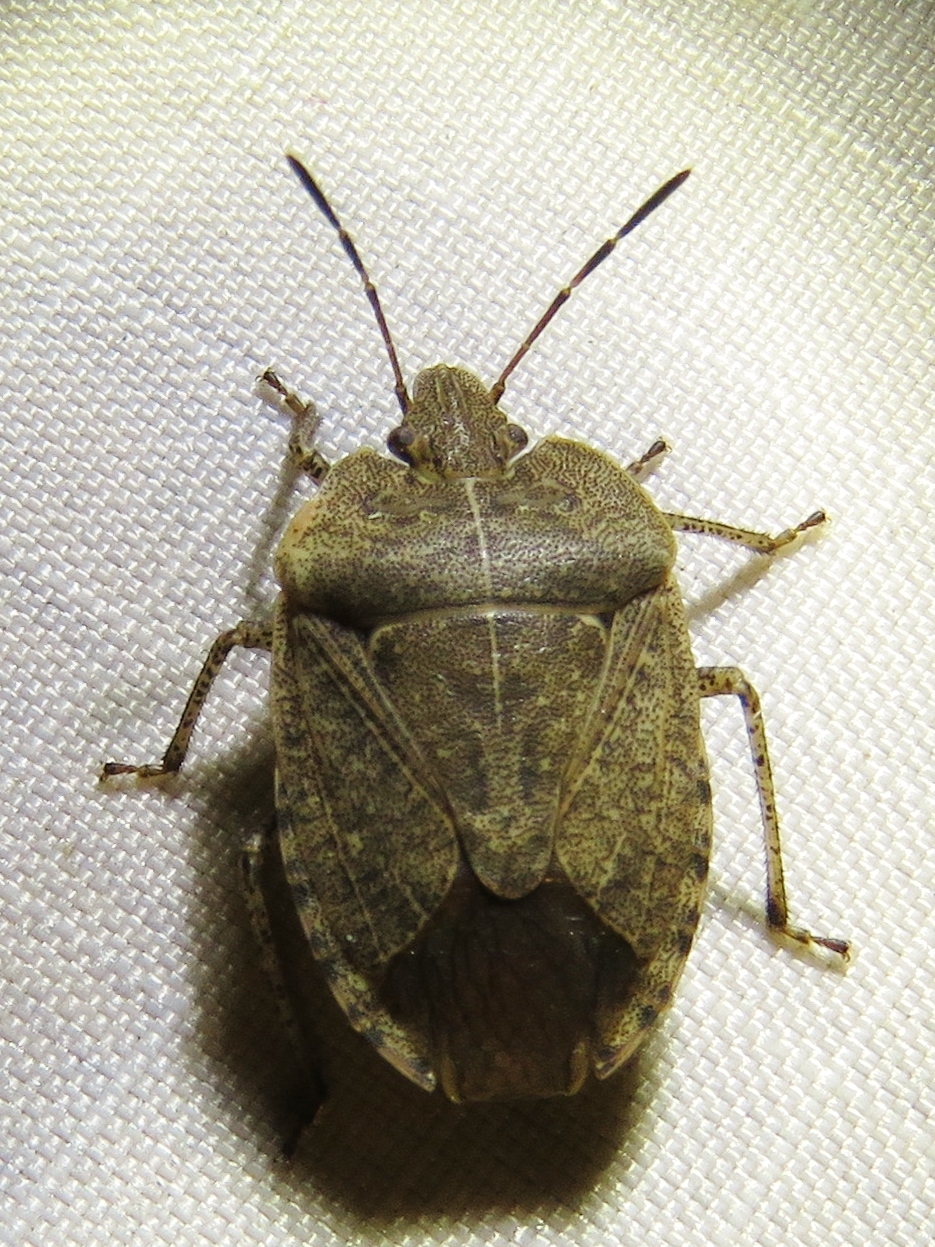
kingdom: Animalia
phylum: Arthropoda
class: Insecta
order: Hemiptera
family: Pentatomidae
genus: Menecles
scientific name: Menecles insertus
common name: Elf shoe stink bug
